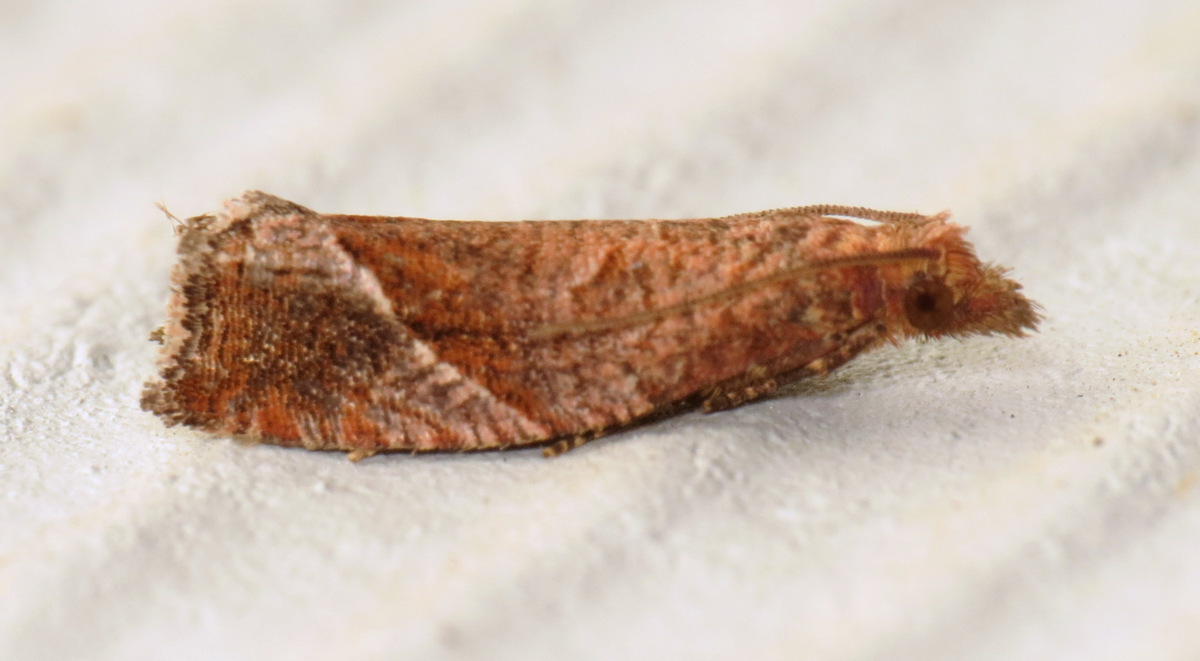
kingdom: Animalia
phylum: Arthropoda
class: Insecta
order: Lepidoptera
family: Tortricidae
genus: Pelochrista
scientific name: Pelochrista derelicta
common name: Derelict pelochrista moth
